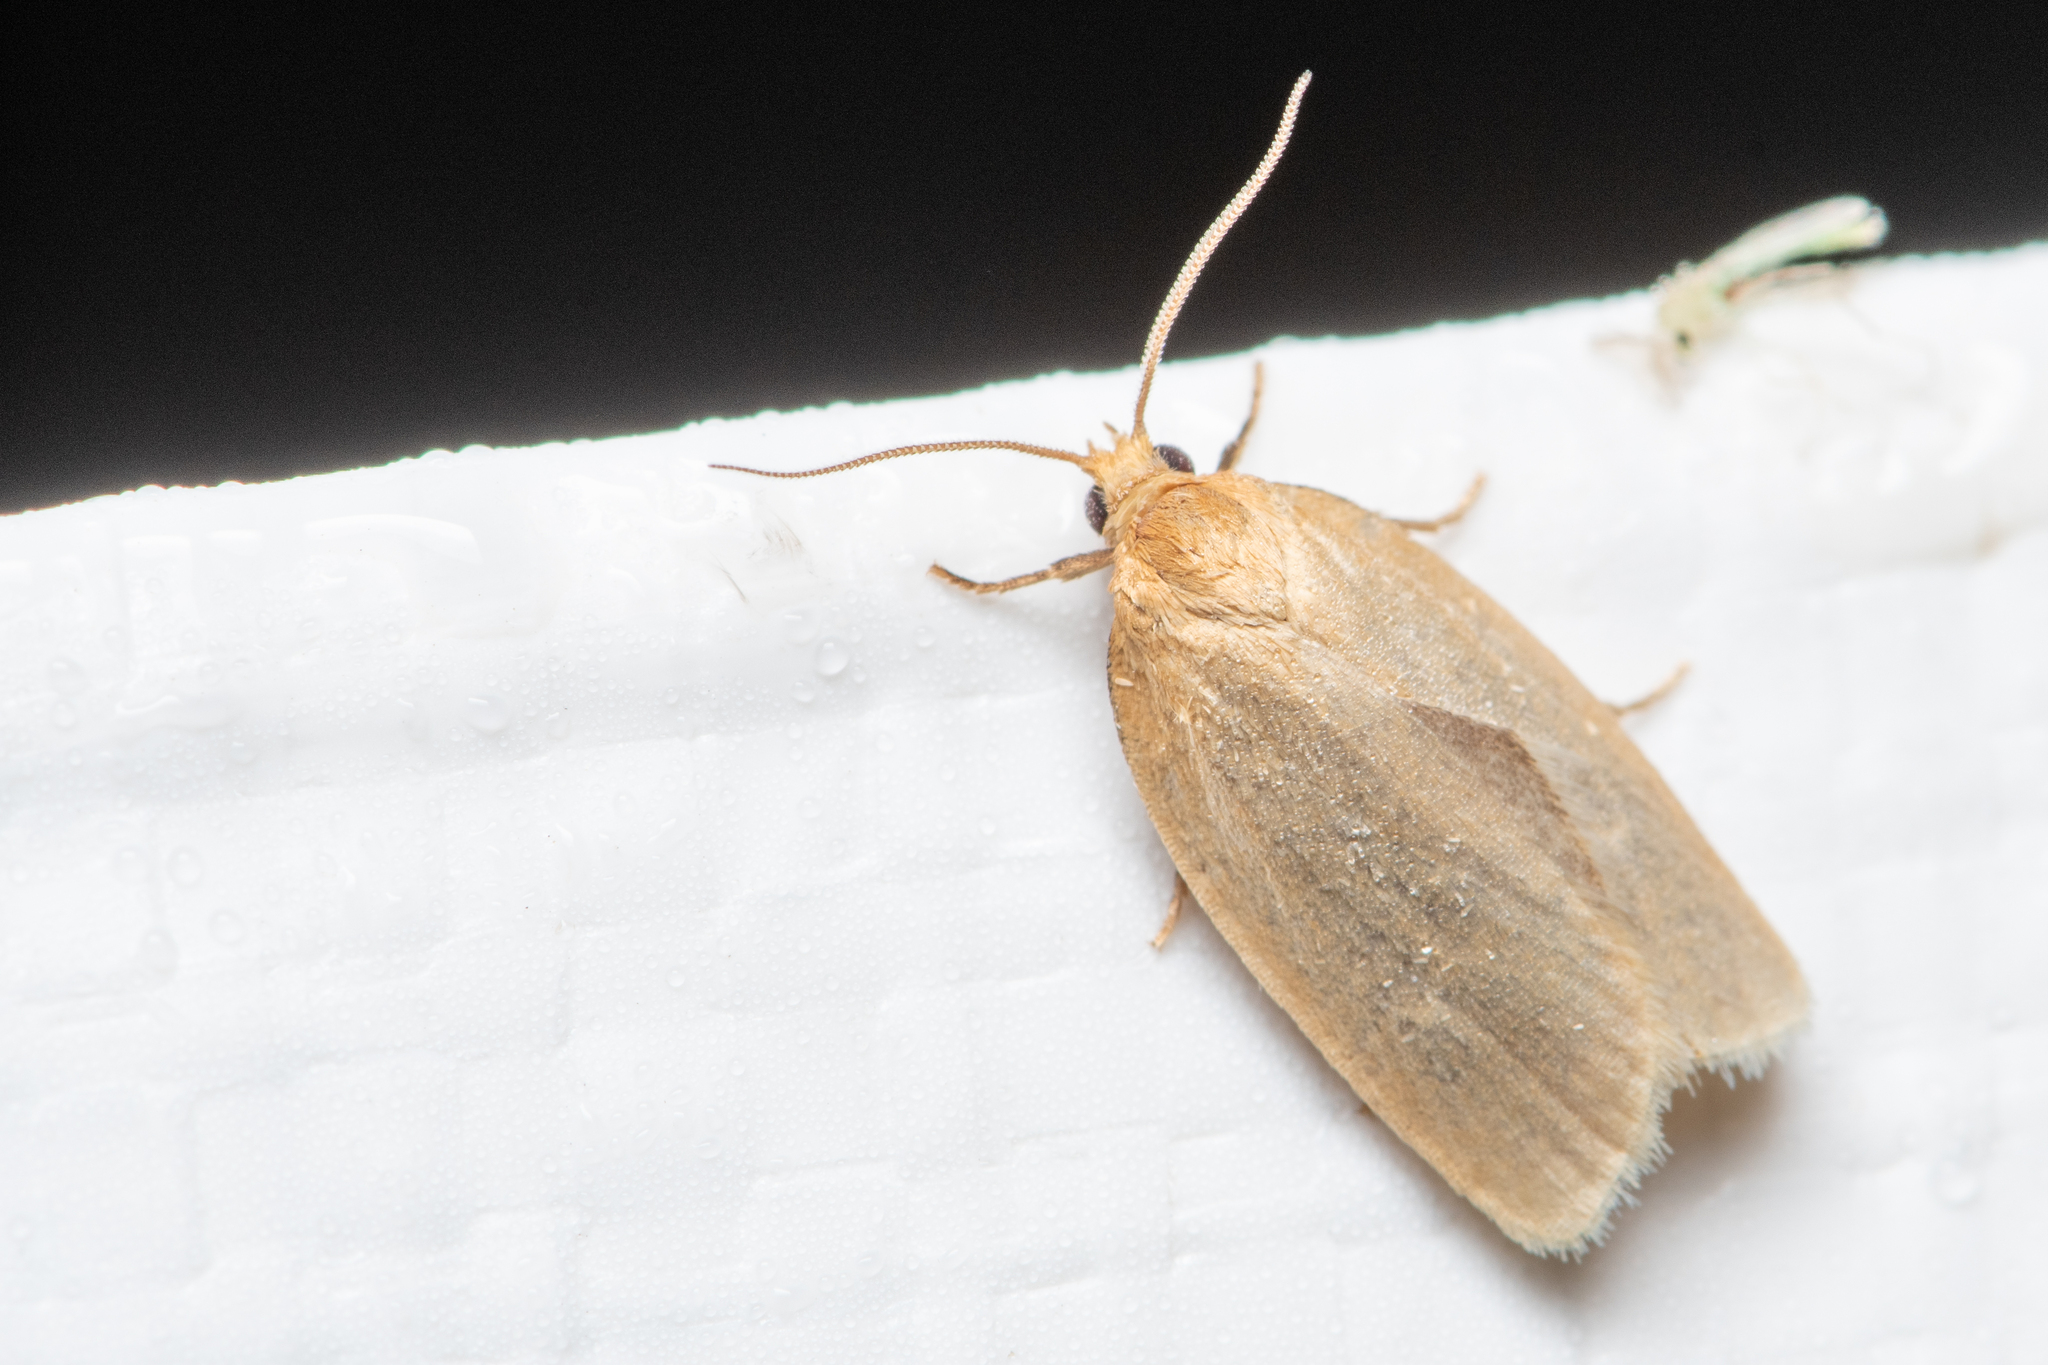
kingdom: Animalia
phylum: Arthropoda
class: Insecta
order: Lepidoptera
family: Tortricidae
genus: Xenotemna
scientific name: Xenotemna pallorana
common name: Pallid leafroller moth
